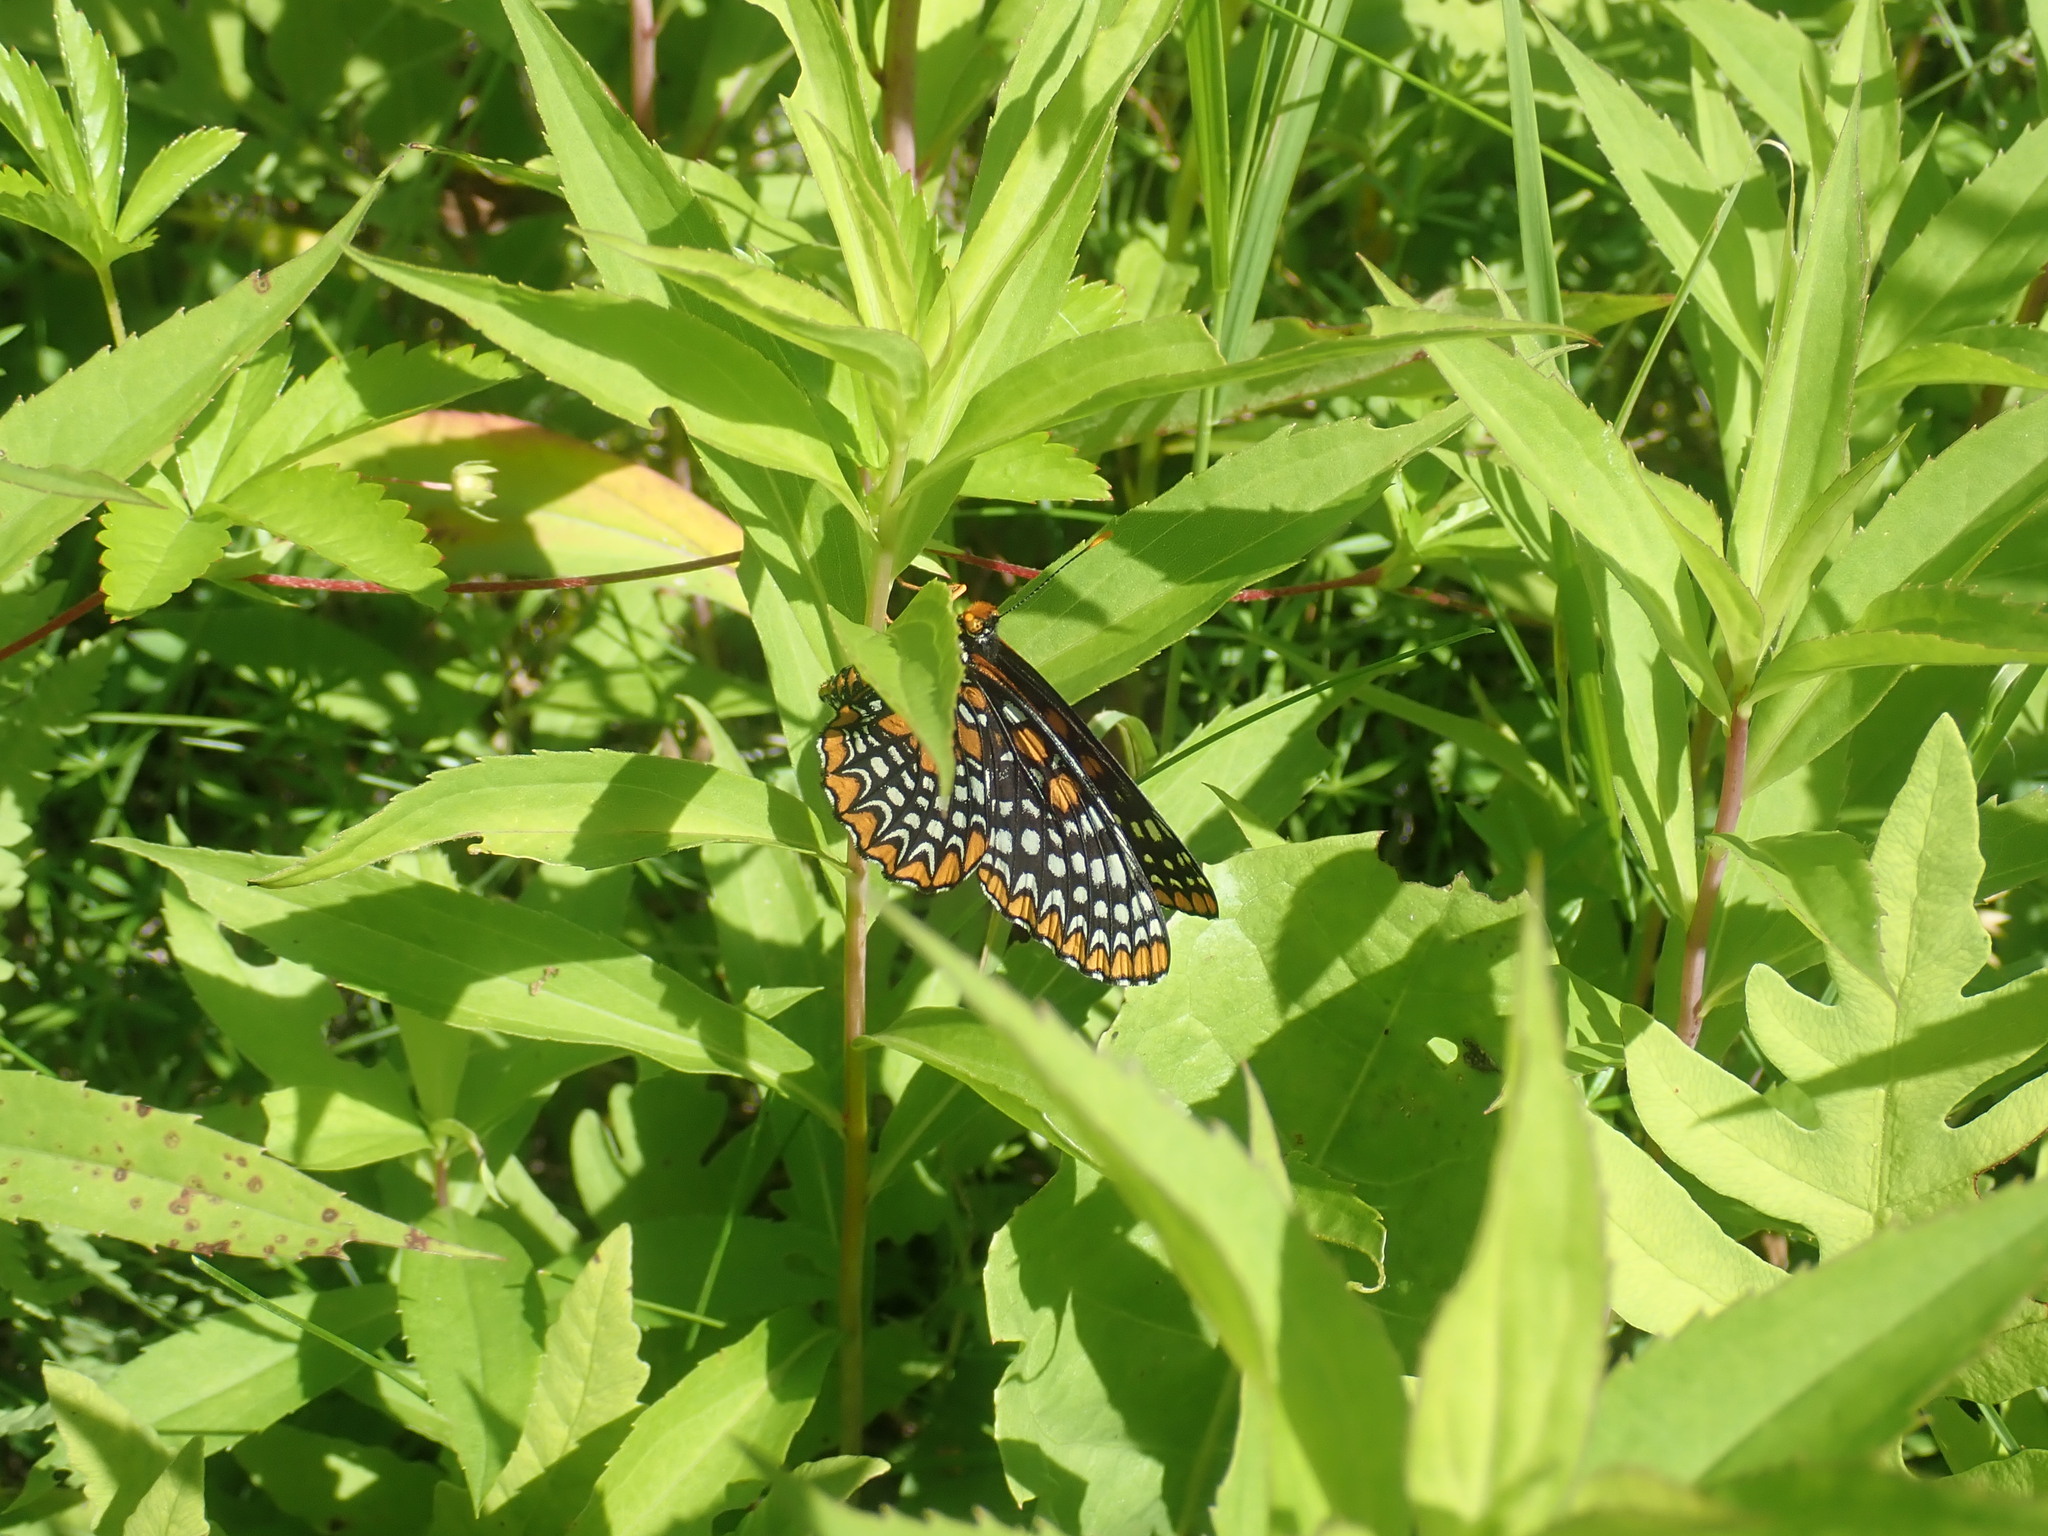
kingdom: Animalia
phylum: Arthropoda
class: Insecta
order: Lepidoptera
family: Nymphalidae
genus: Euphydryas
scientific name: Euphydryas phaeton
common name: Baltimore checkerspot
